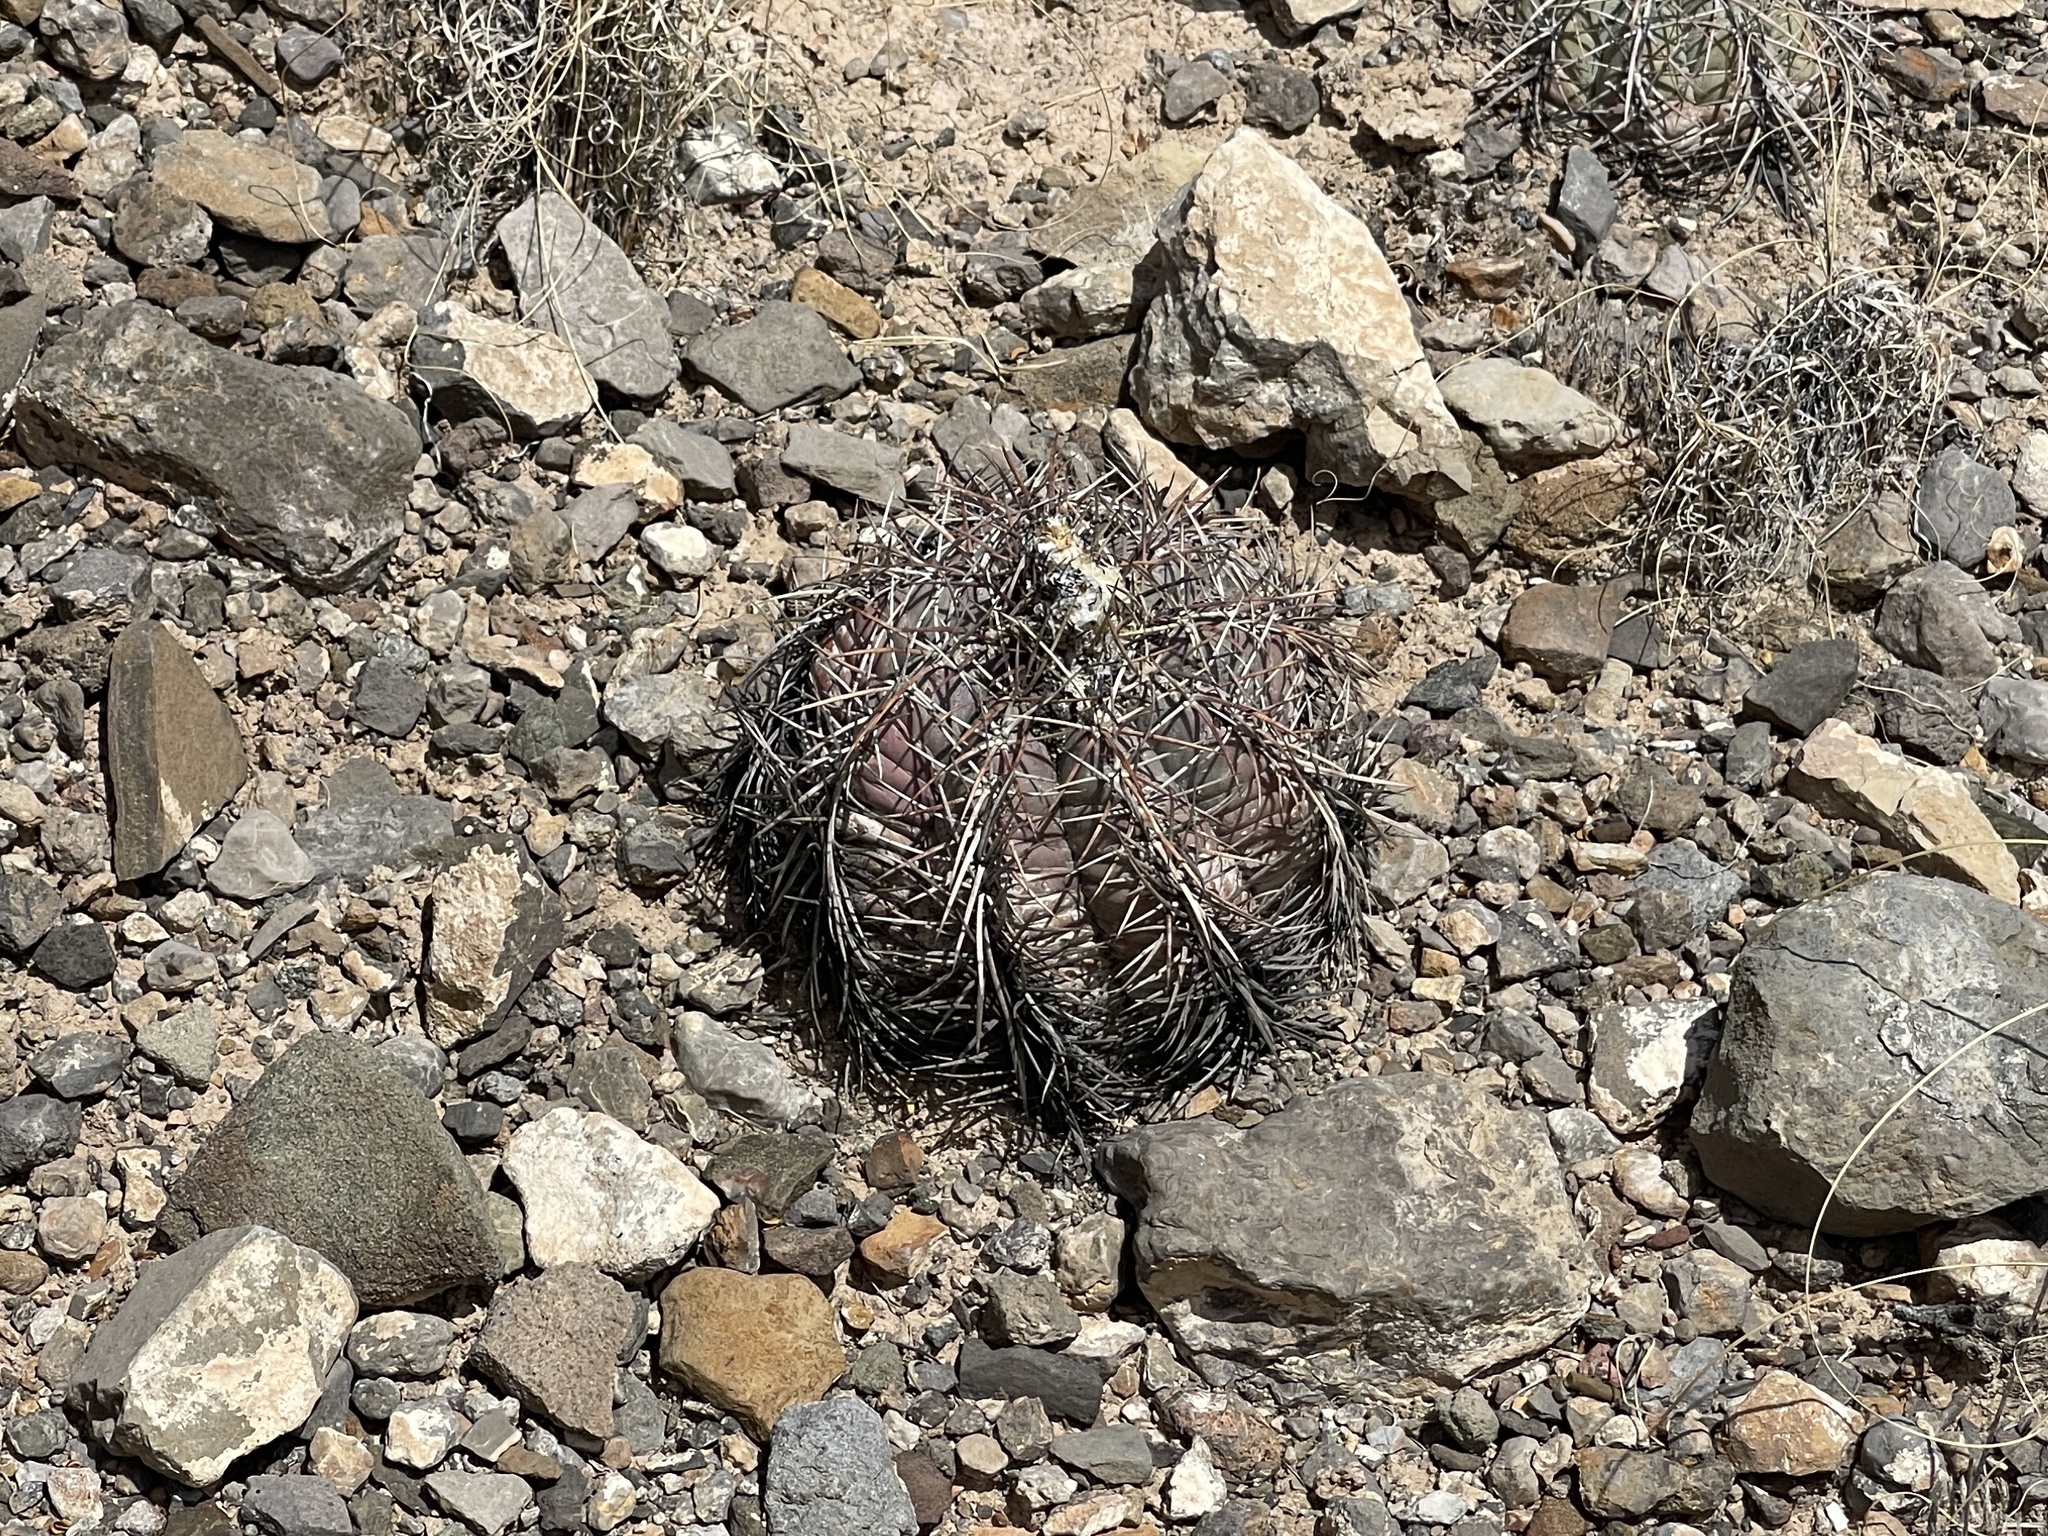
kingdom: Plantae
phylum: Tracheophyta
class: Magnoliopsida
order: Caryophyllales
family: Cactaceae
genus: Echinocactus
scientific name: Echinocactus horizonthalonius
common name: Devilshead
